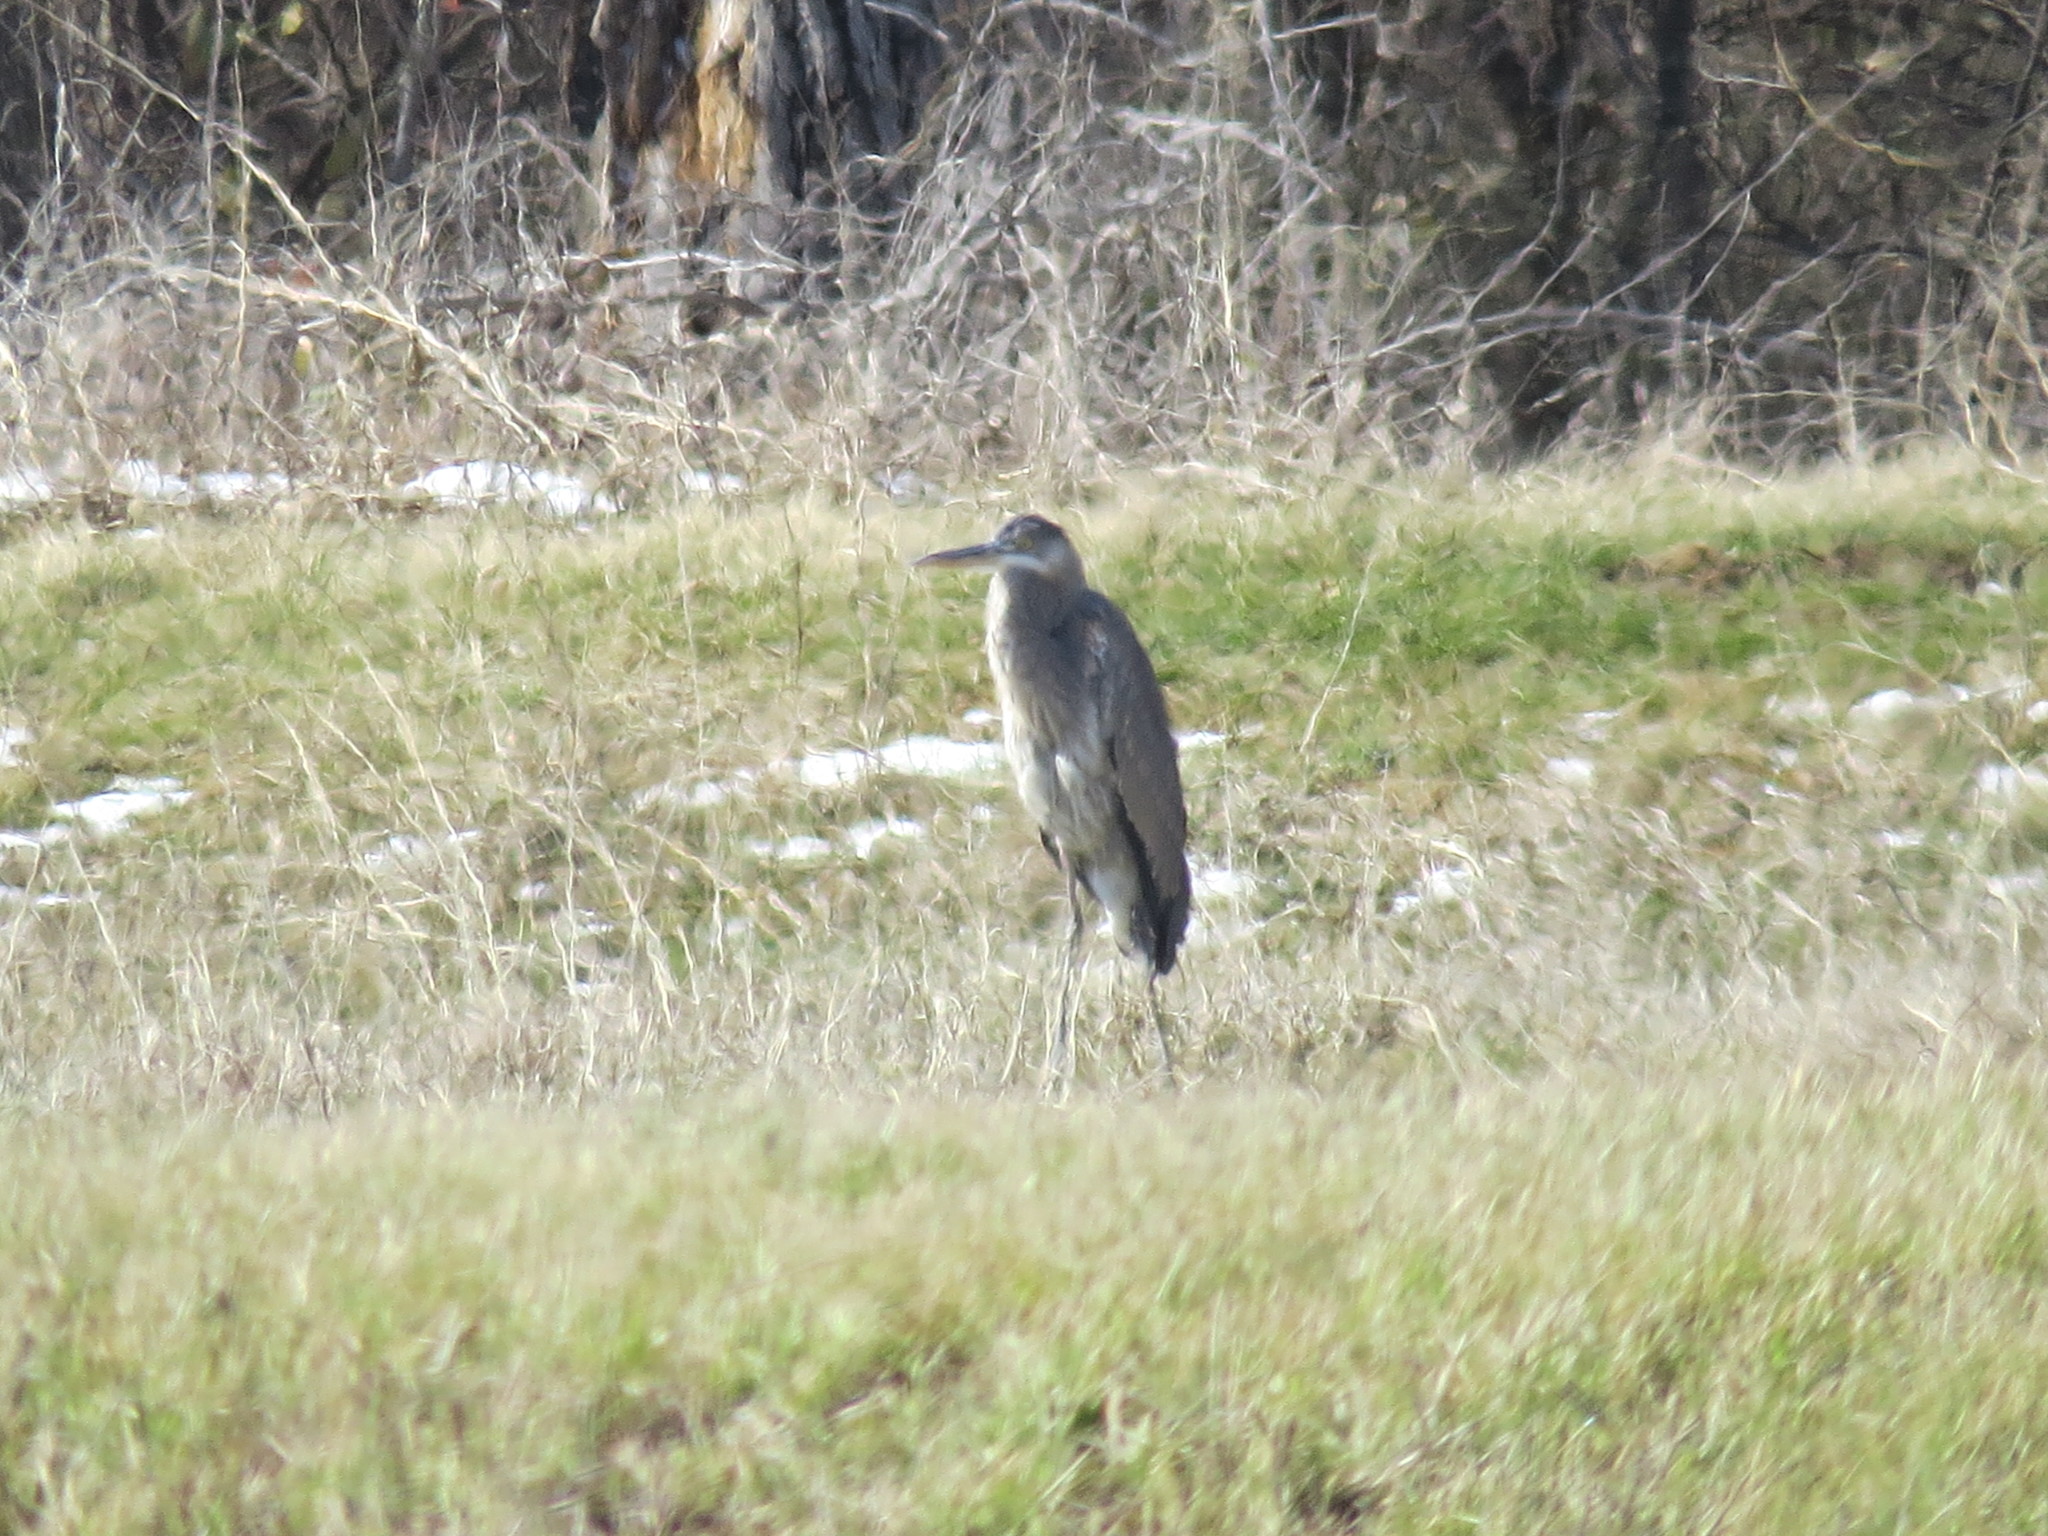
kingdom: Animalia
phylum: Chordata
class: Aves
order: Pelecaniformes
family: Ardeidae
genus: Ardea
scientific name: Ardea herodias
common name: Great blue heron
